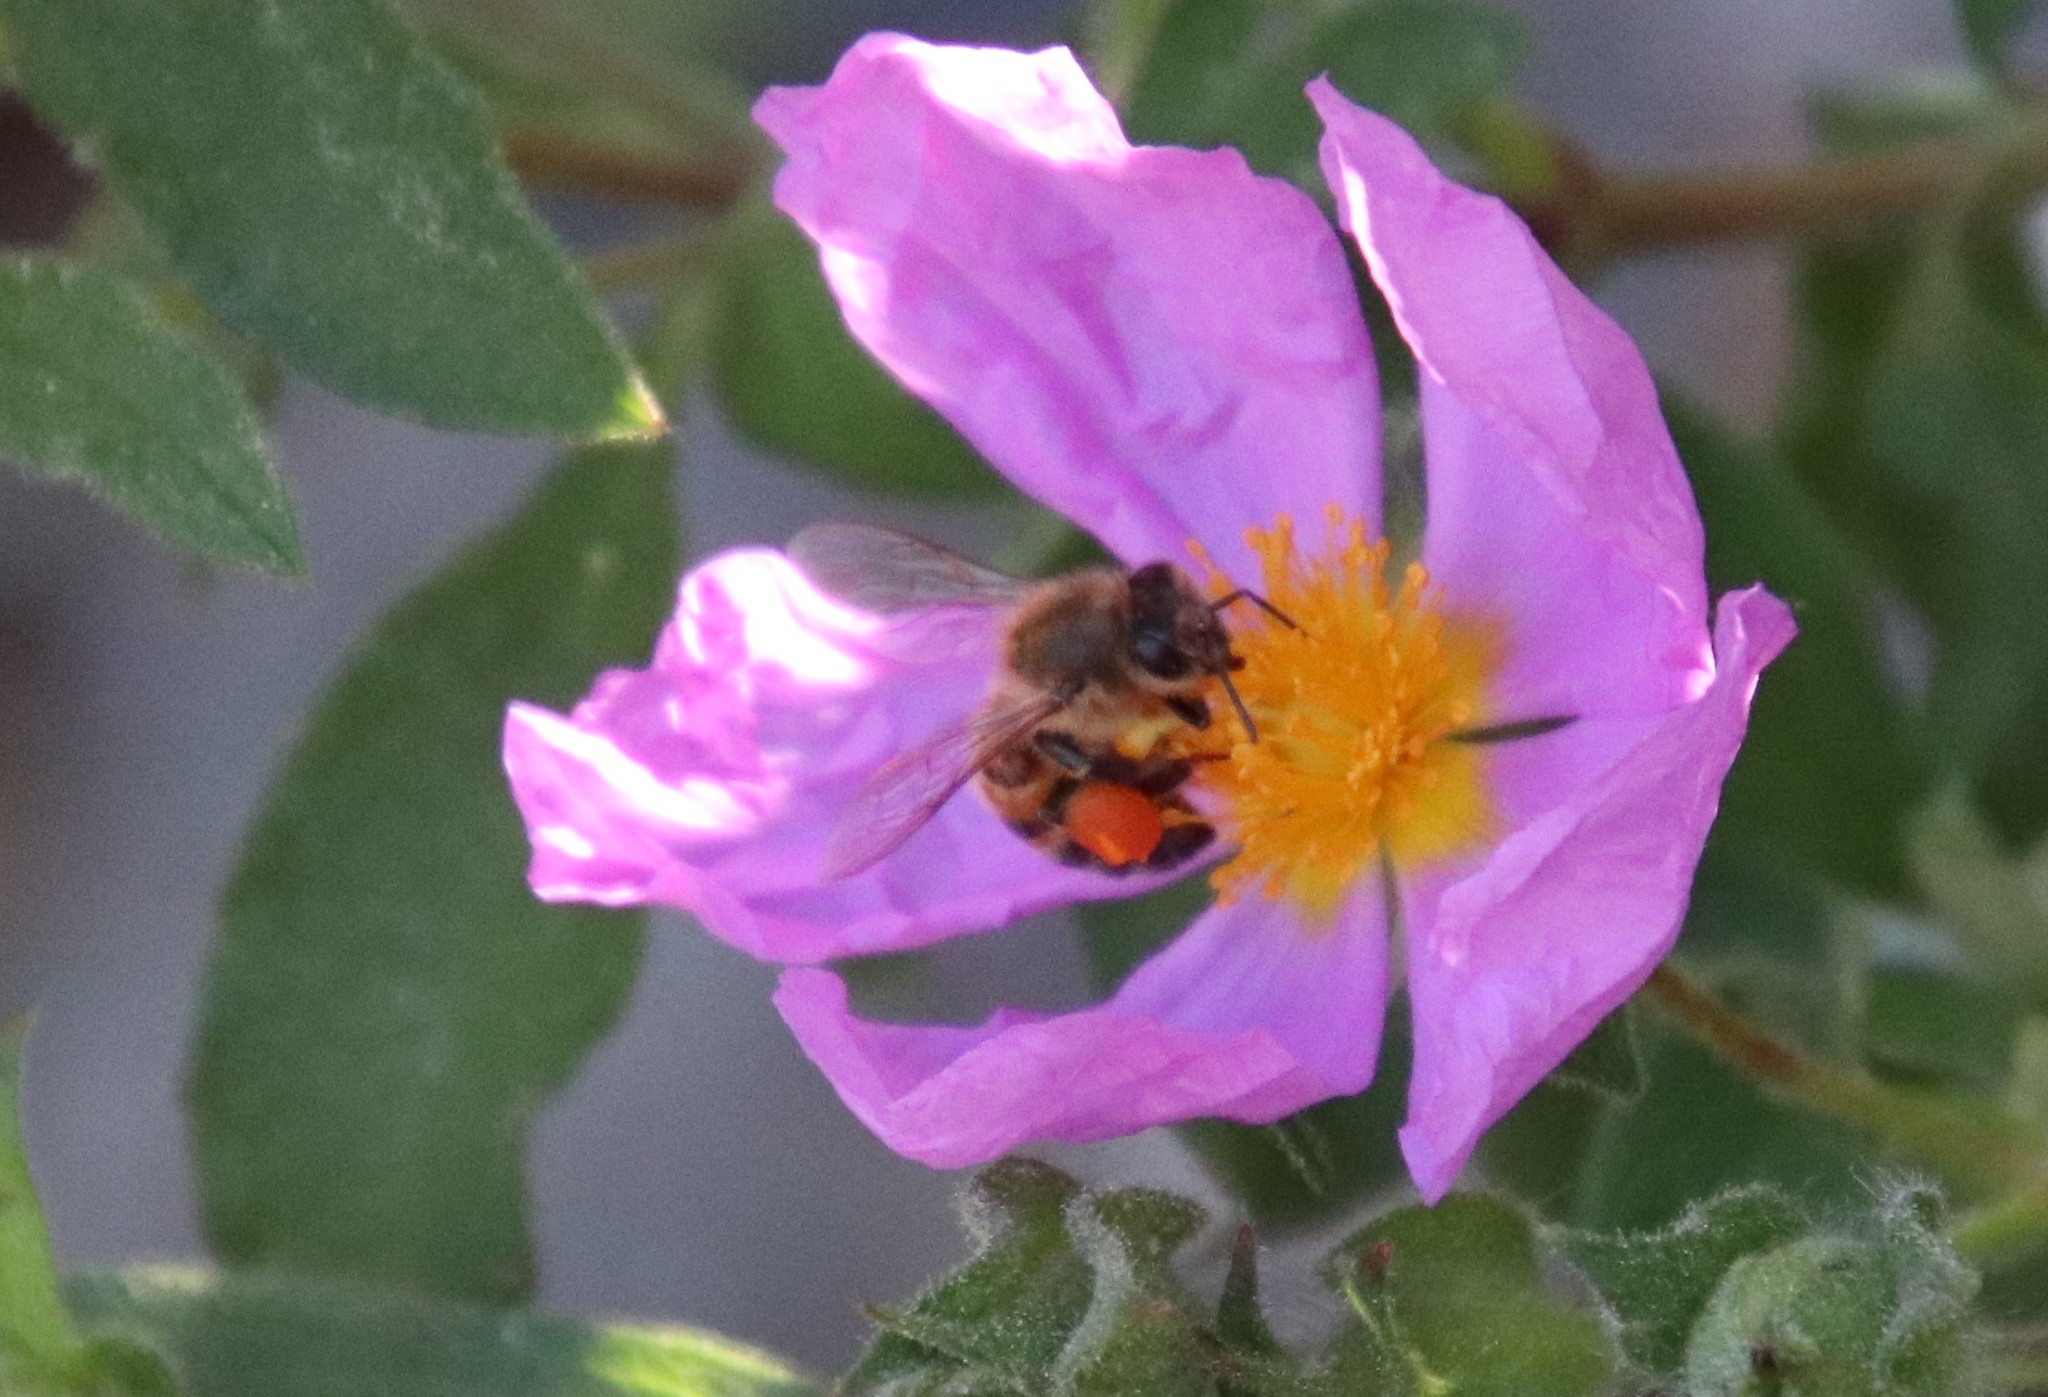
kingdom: Animalia
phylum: Arthropoda
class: Insecta
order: Hymenoptera
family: Apidae
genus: Apis
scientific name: Apis mellifera
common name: Honey bee
